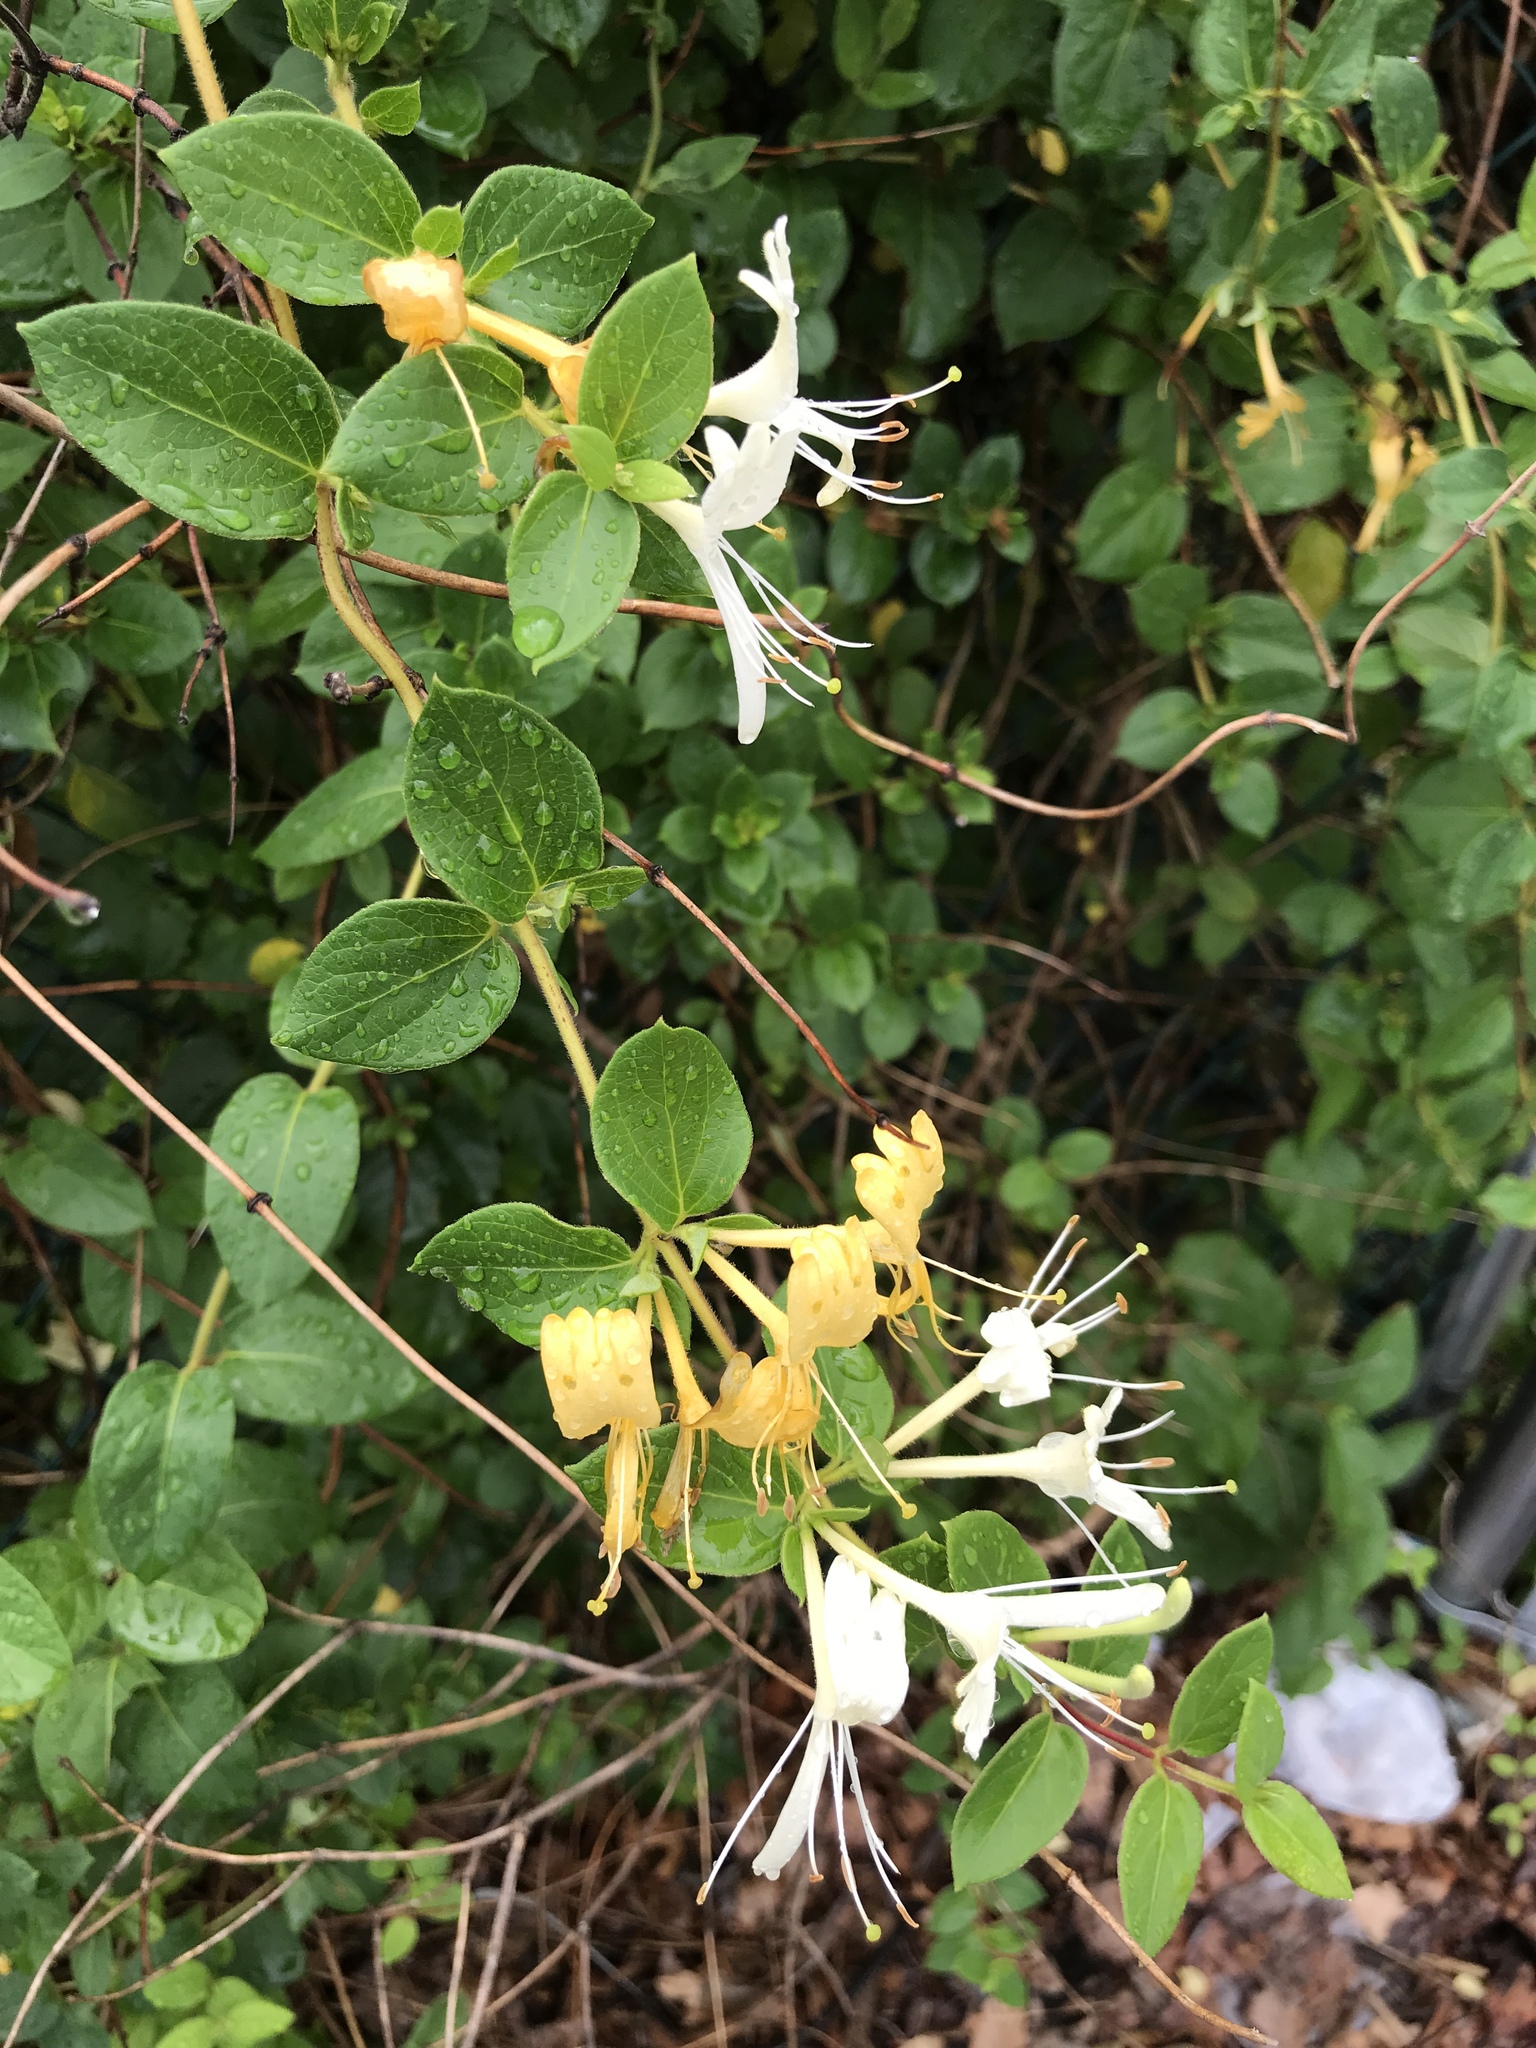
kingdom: Plantae
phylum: Tracheophyta
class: Magnoliopsida
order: Dipsacales
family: Caprifoliaceae
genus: Lonicera
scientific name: Lonicera japonica
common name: Japanese honeysuckle
